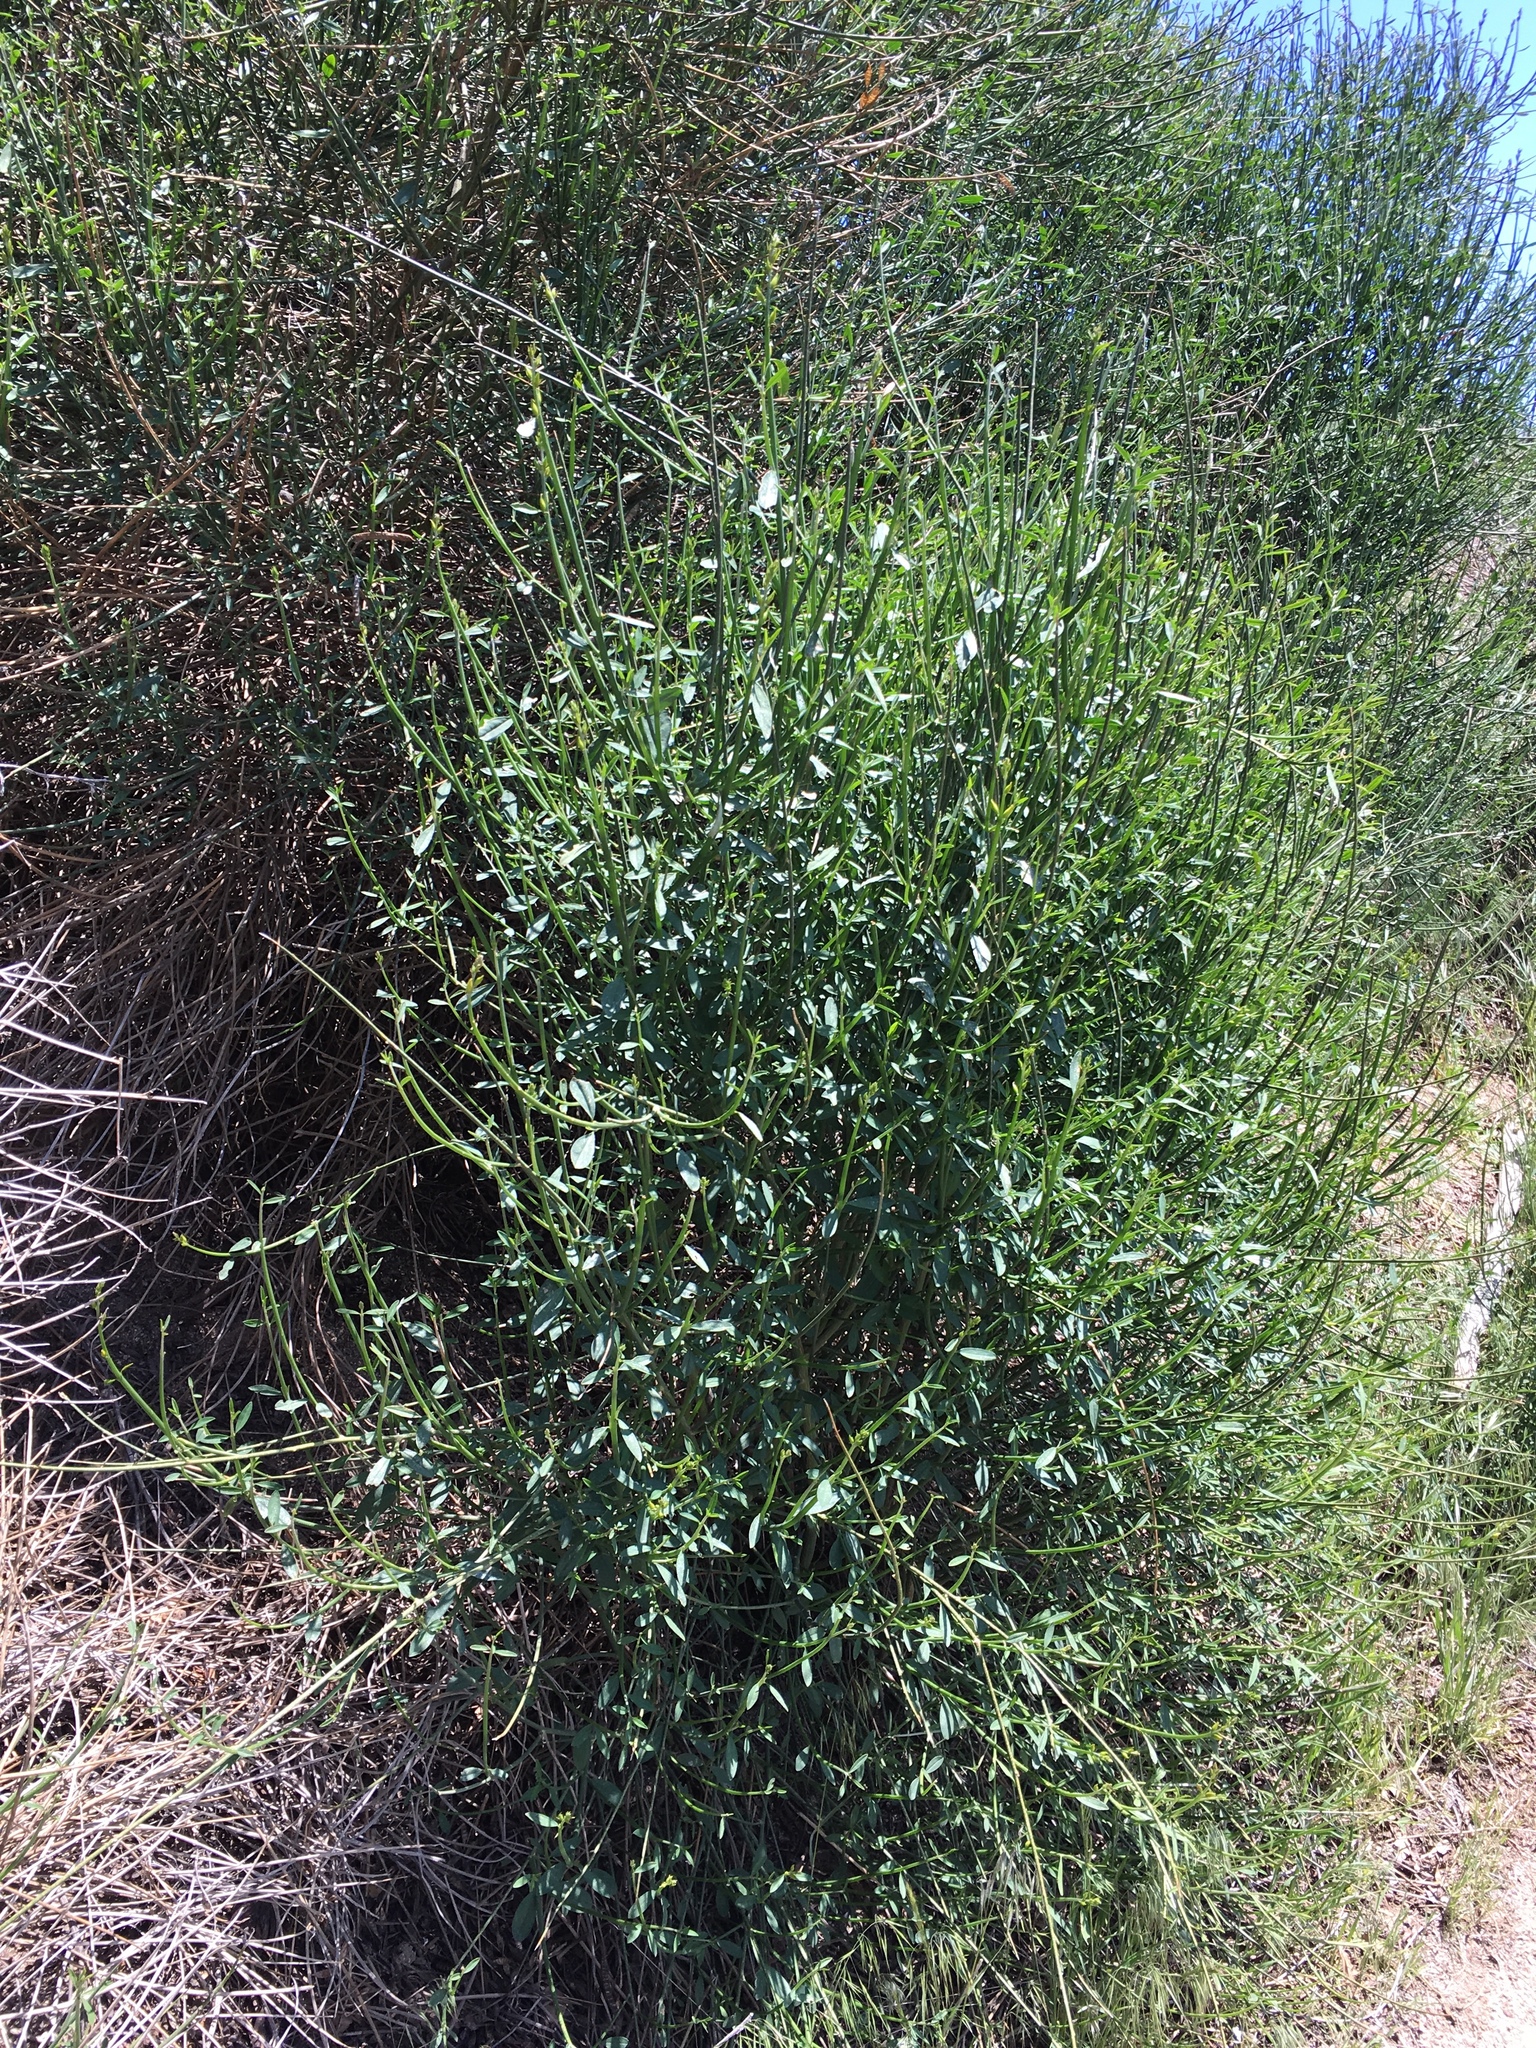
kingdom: Plantae
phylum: Tracheophyta
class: Magnoliopsida
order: Fabales
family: Fabaceae
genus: Spartium
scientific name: Spartium junceum
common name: Spanish broom
